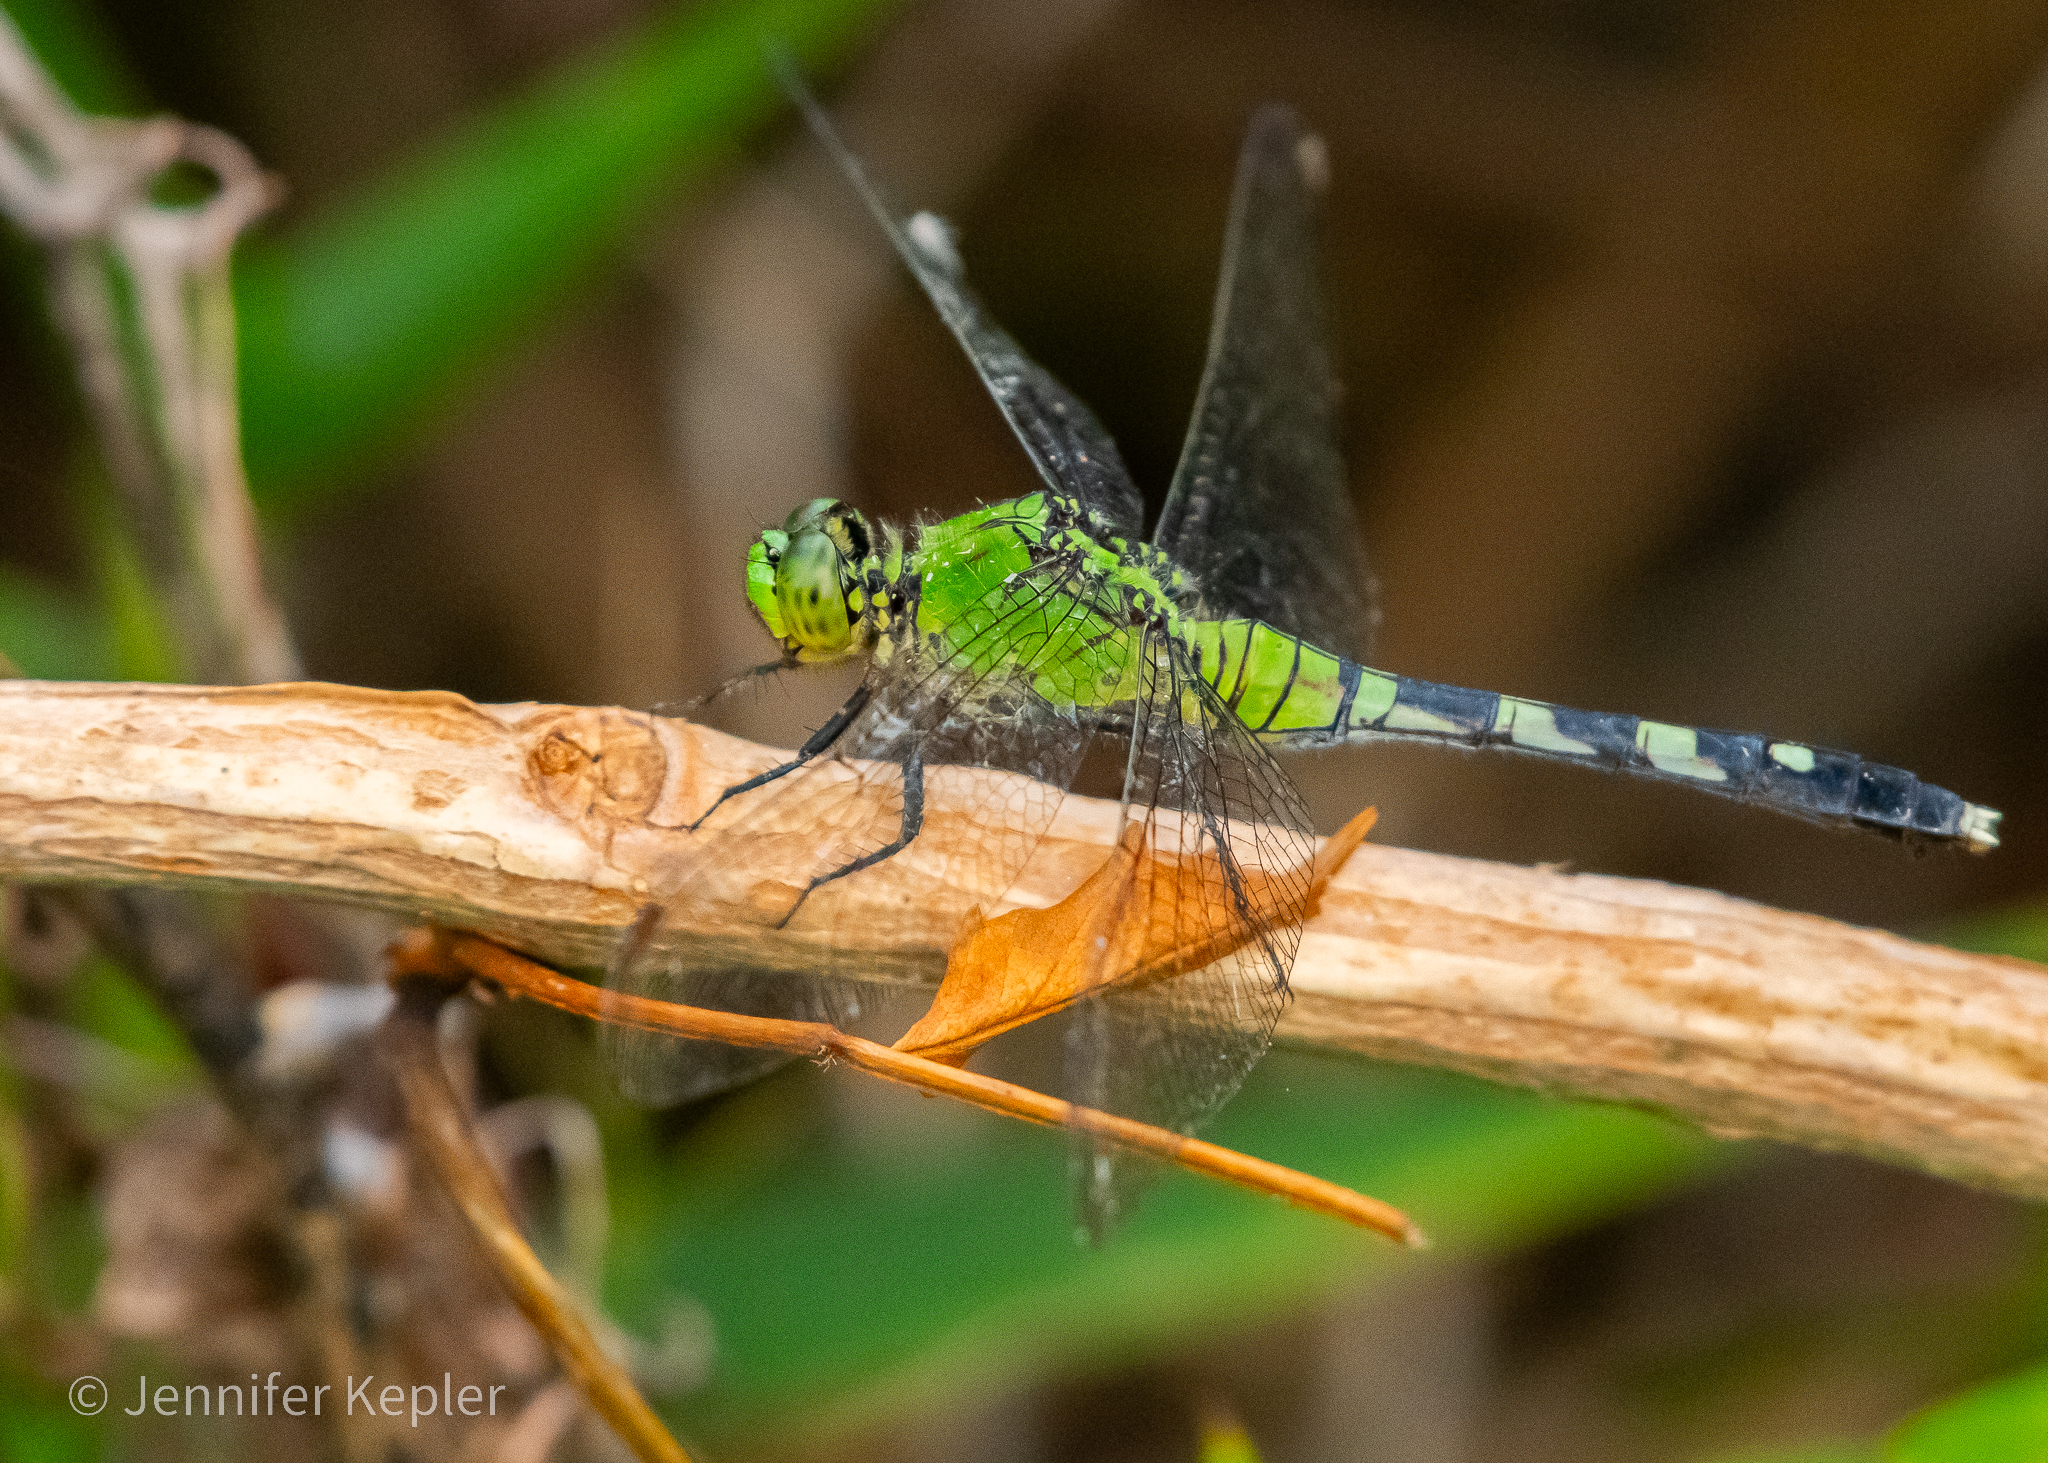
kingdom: Animalia
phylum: Arthropoda
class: Insecta
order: Odonata
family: Libellulidae
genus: Erythemis
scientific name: Erythemis simplicicollis
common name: Eastern pondhawk
